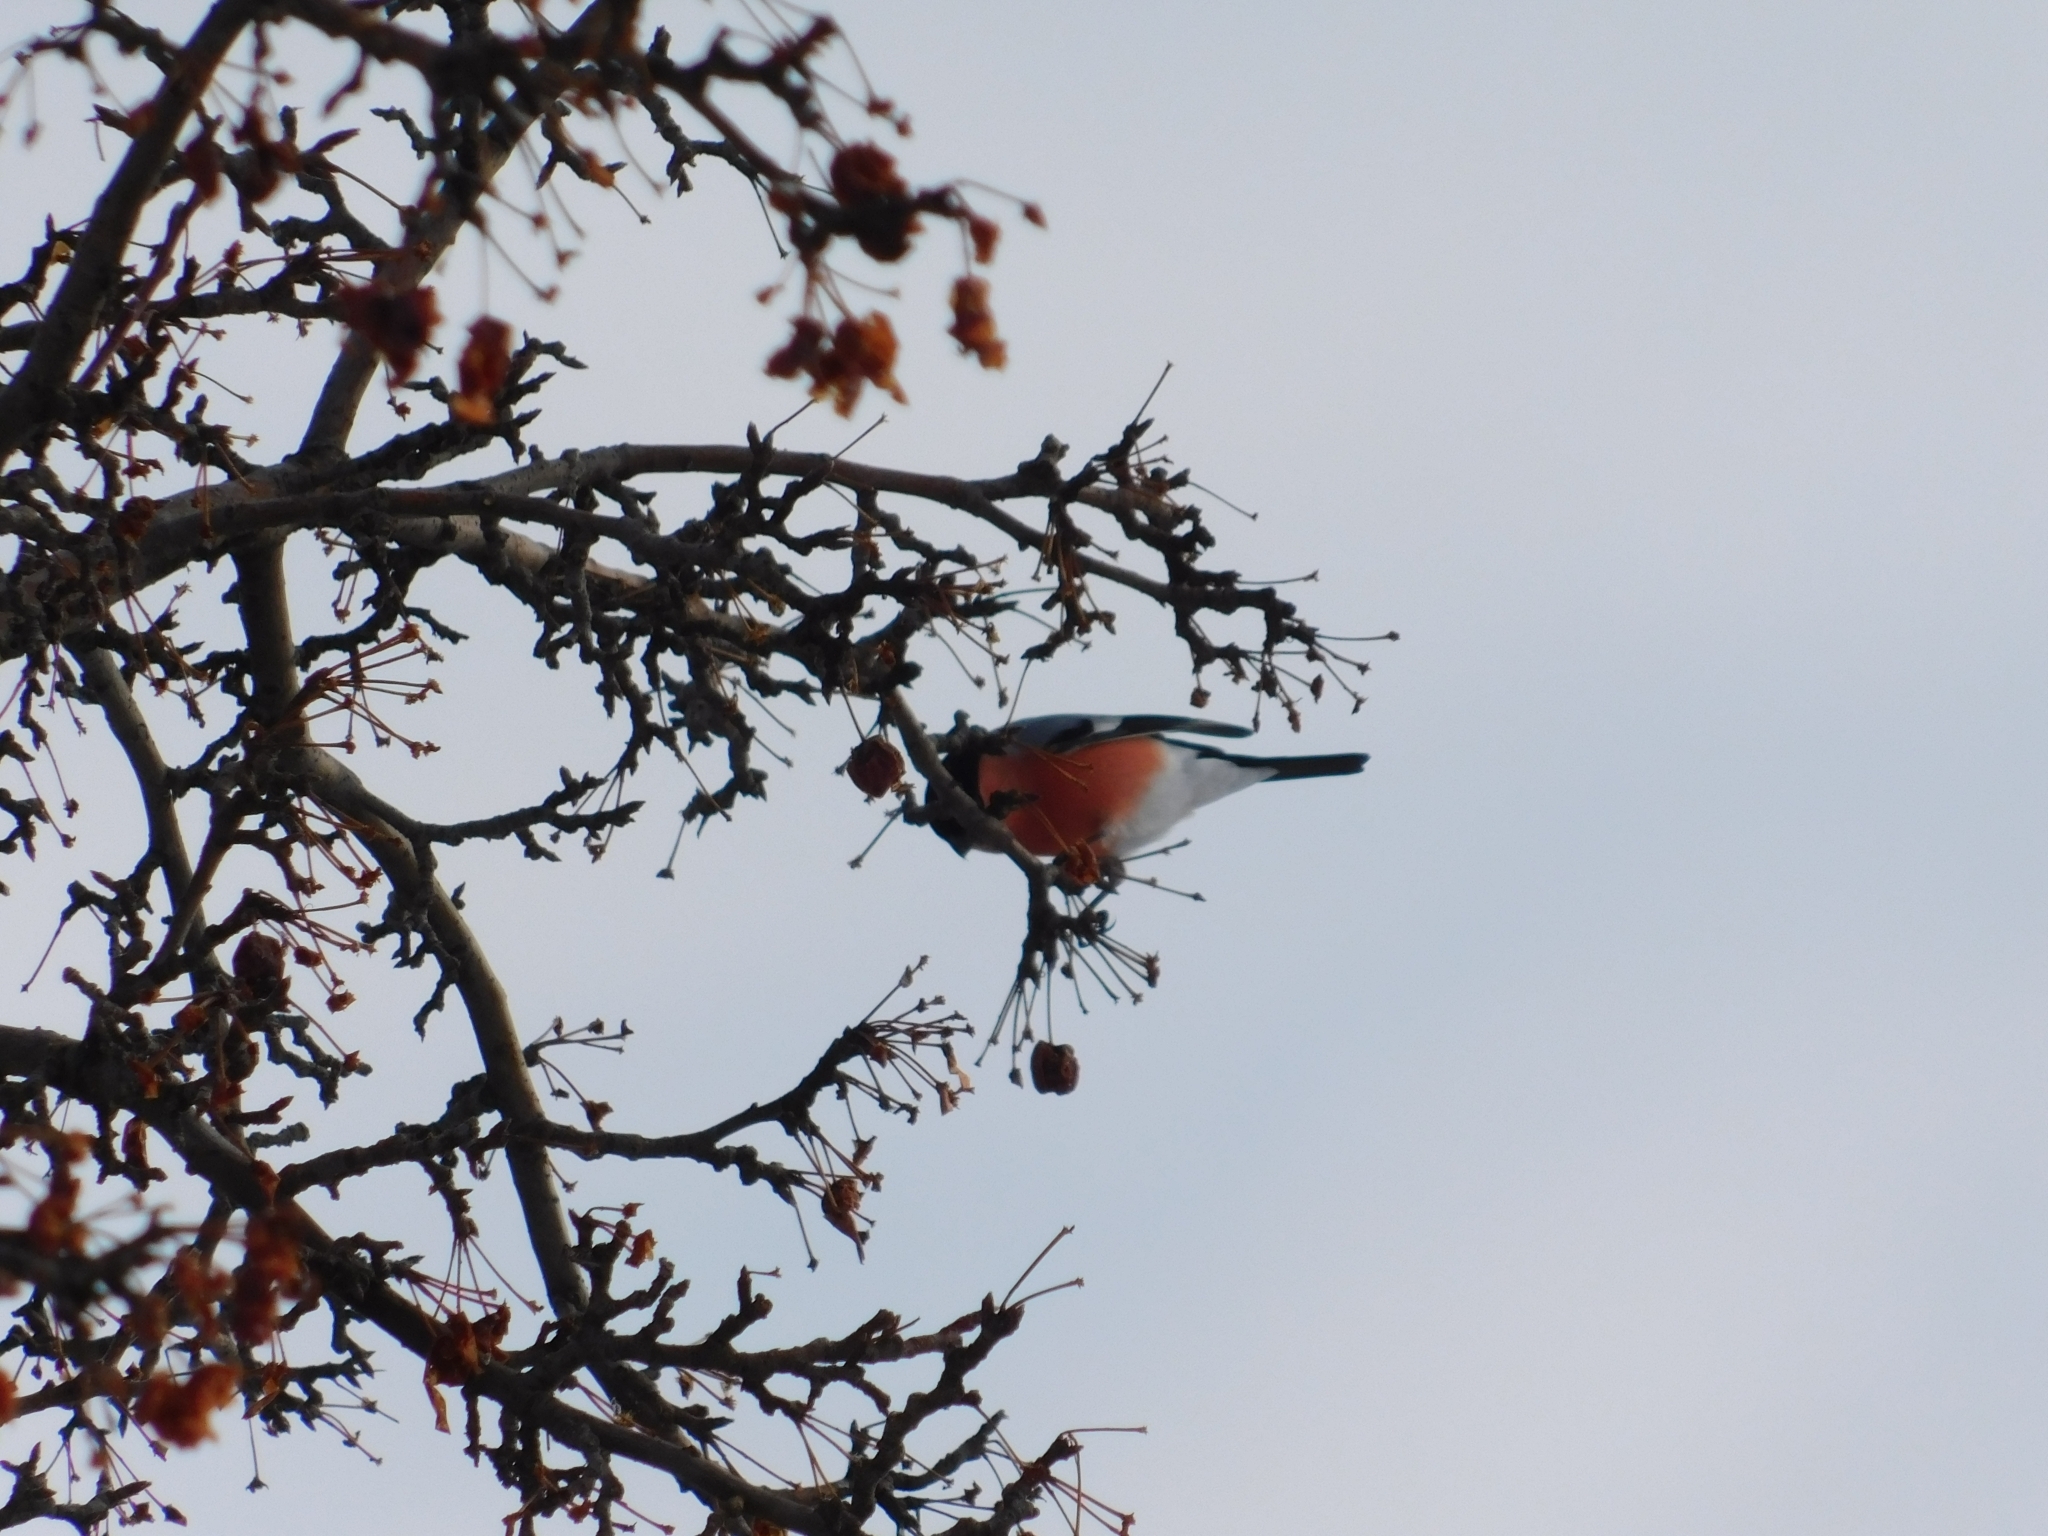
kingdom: Animalia
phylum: Chordata
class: Aves
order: Passeriformes
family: Fringillidae
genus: Pyrrhula
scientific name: Pyrrhula pyrrhula
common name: Eurasian bullfinch
